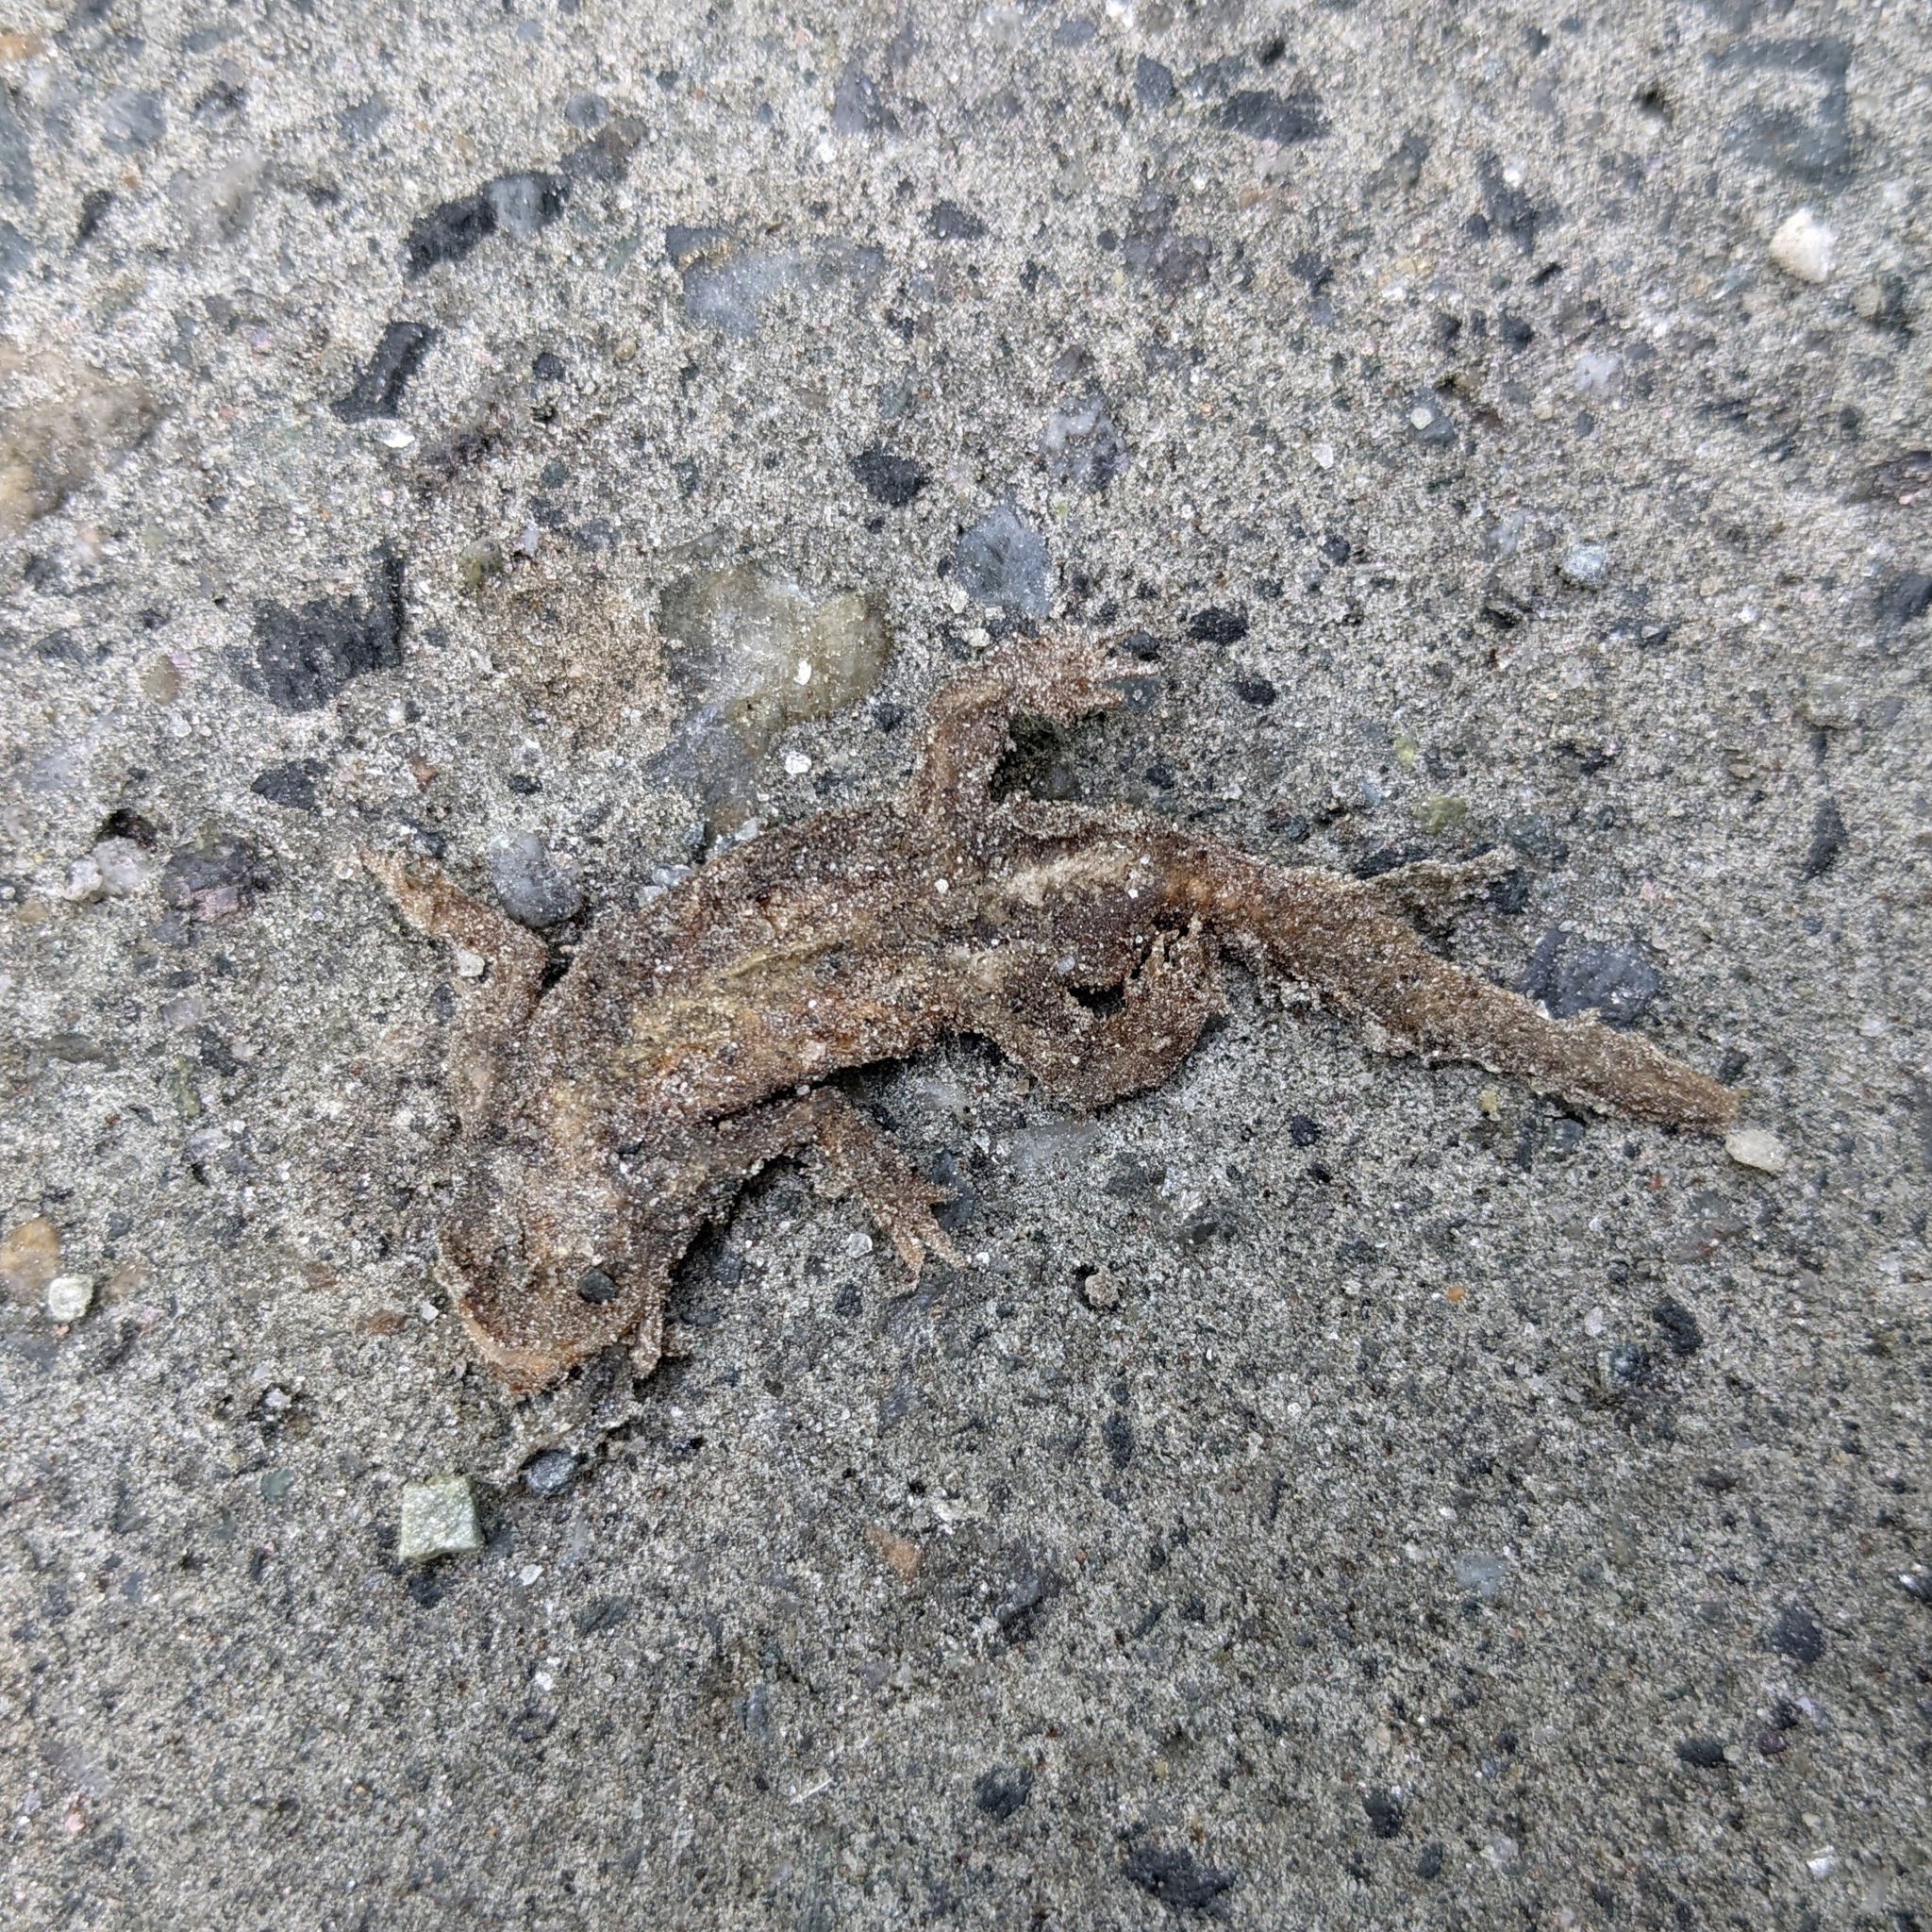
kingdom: Animalia
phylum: Chordata
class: Amphibia
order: Caudata
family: Salamandridae
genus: Notophthalmus
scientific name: Notophthalmus viridescens
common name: Eastern newt
